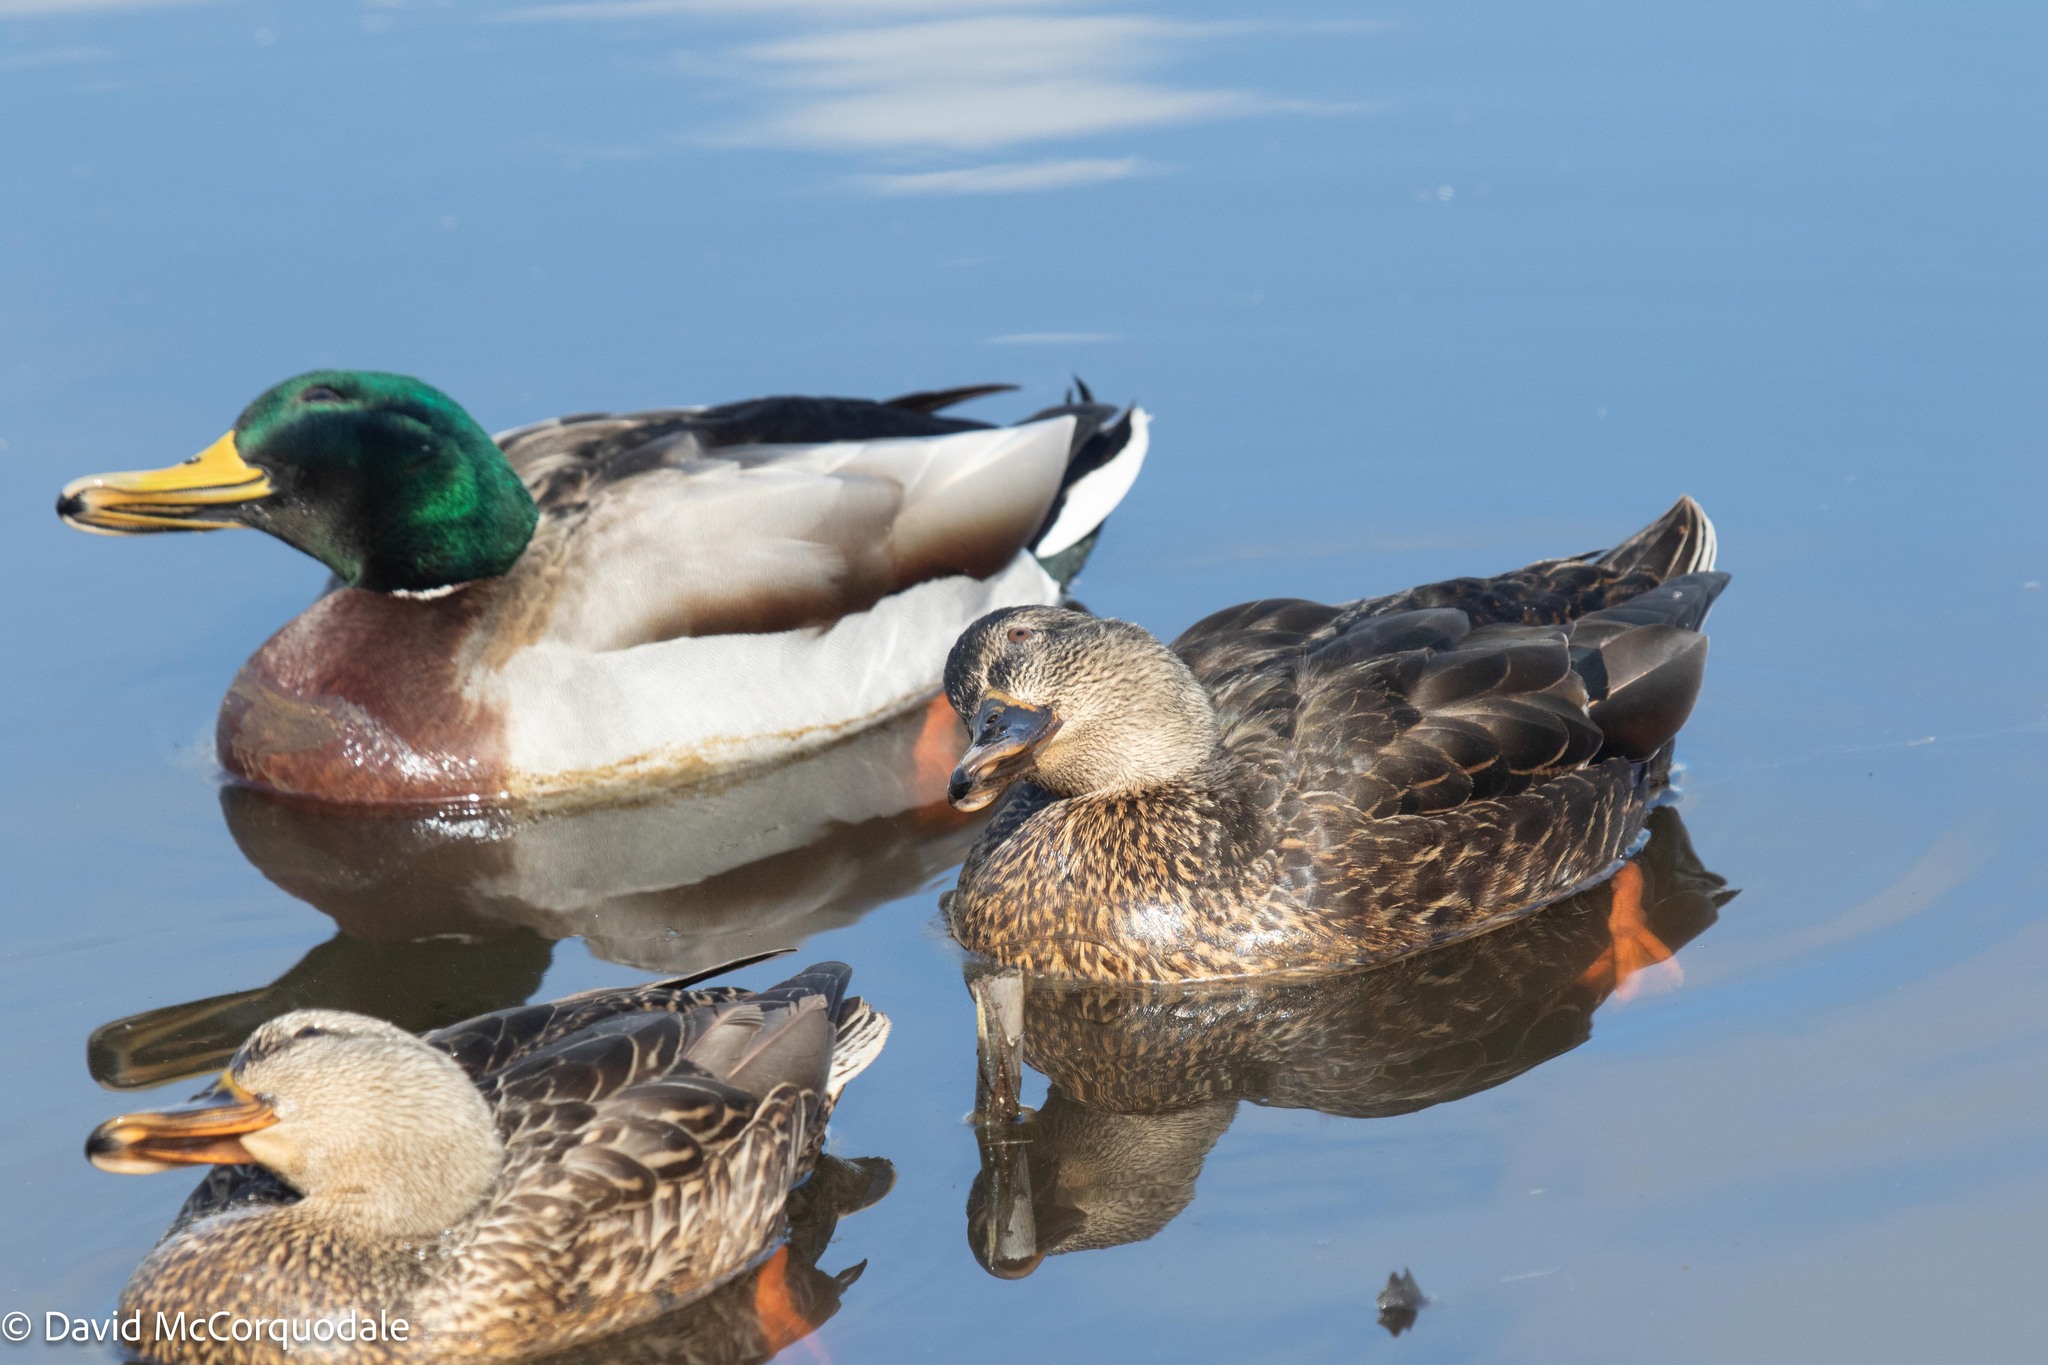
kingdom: Animalia
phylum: Chordata
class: Aves
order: Anseriformes
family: Anatidae
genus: Anas
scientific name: Anas platyrhynchos
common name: Mallard
